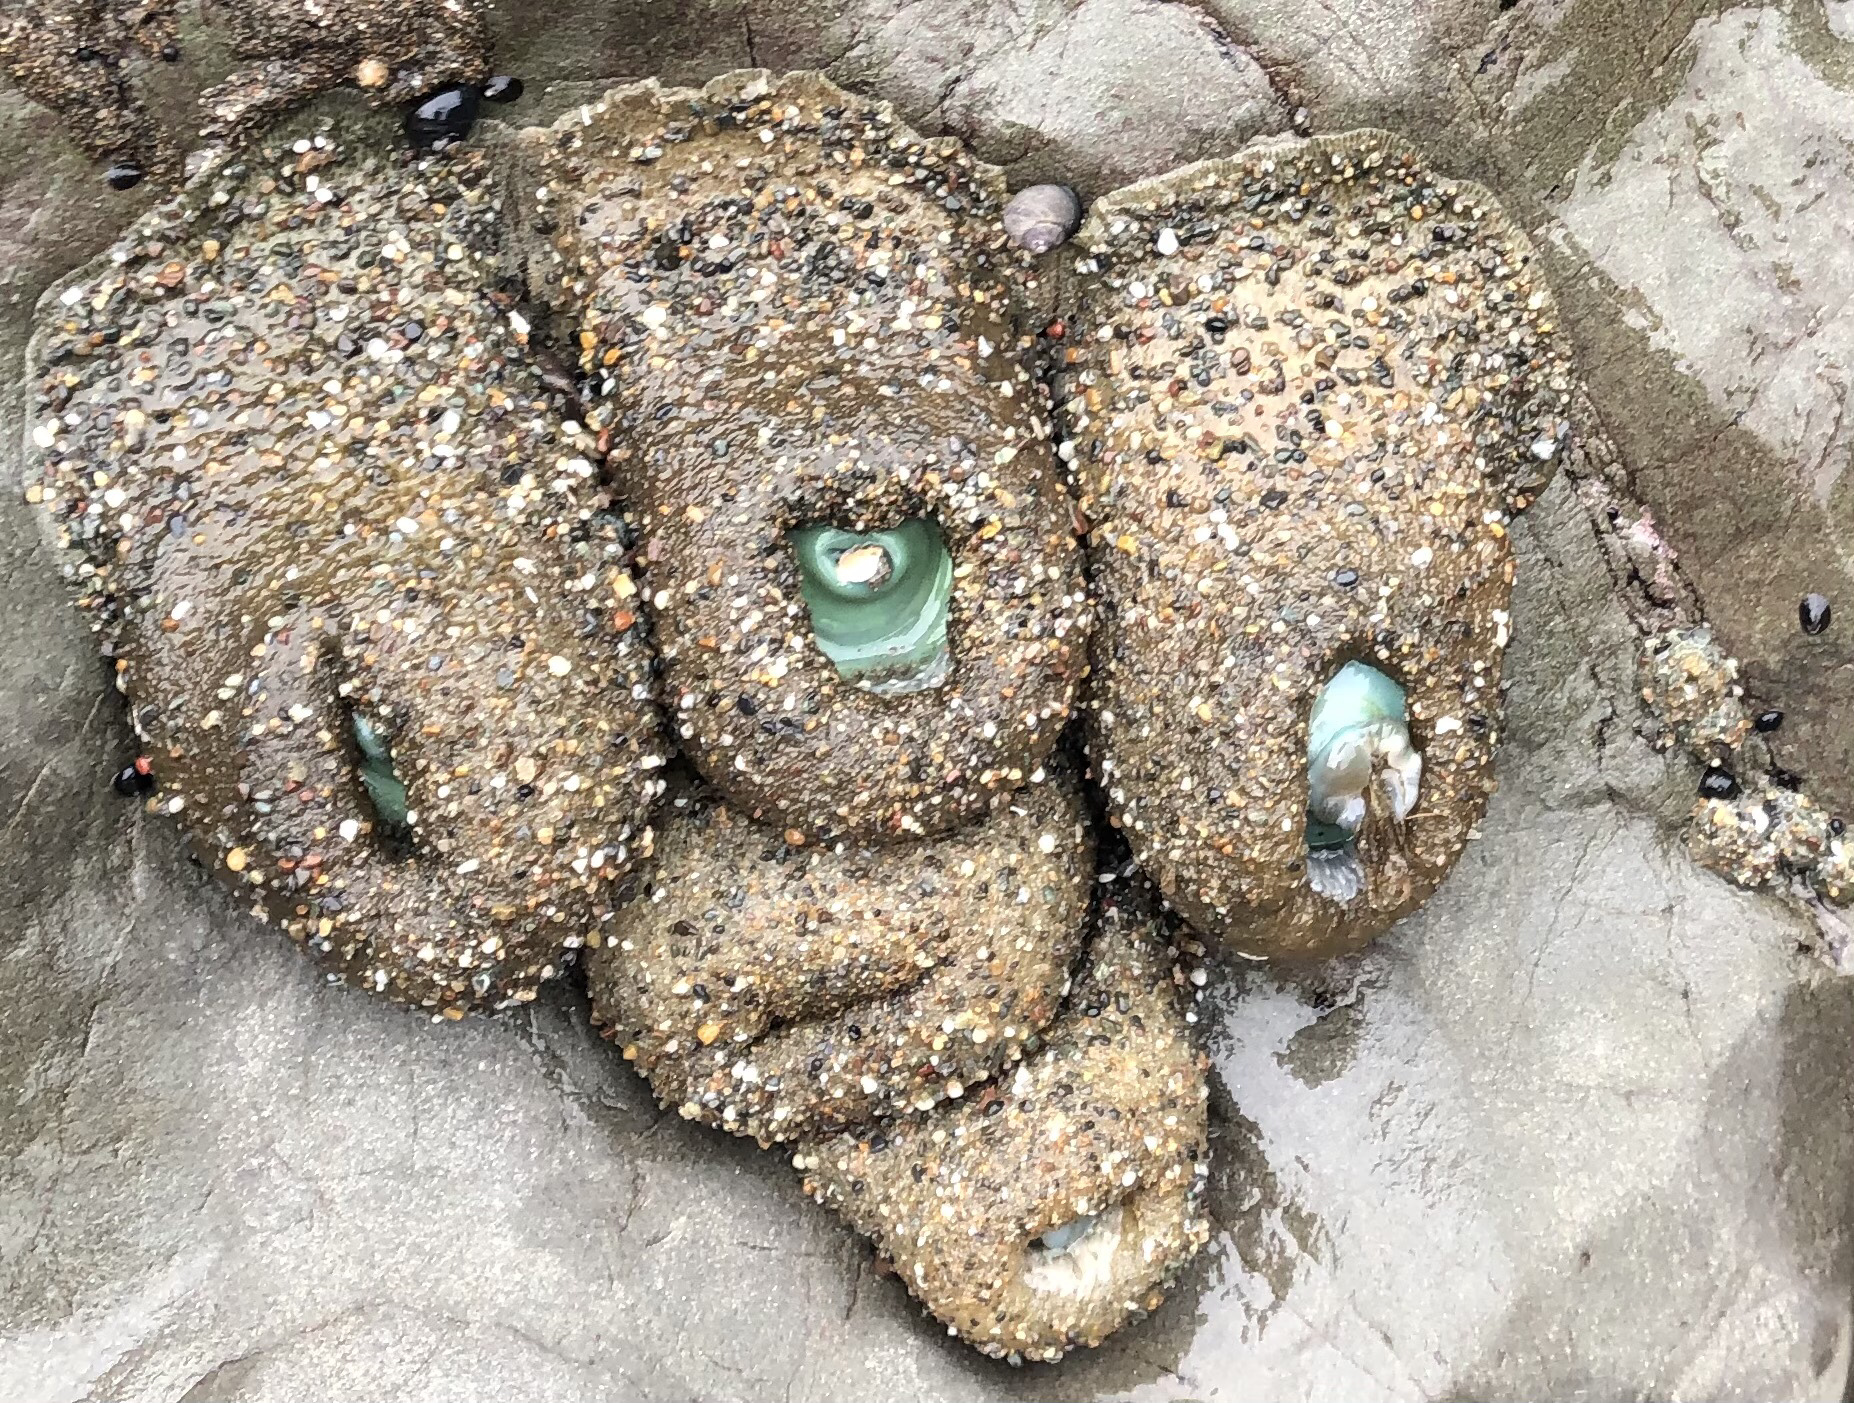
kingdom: Animalia
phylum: Cnidaria
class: Anthozoa
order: Actiniaria
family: Actiniidae
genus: Anthopleura
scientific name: Anthopleura xanthogrammica
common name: Giant green anemone
